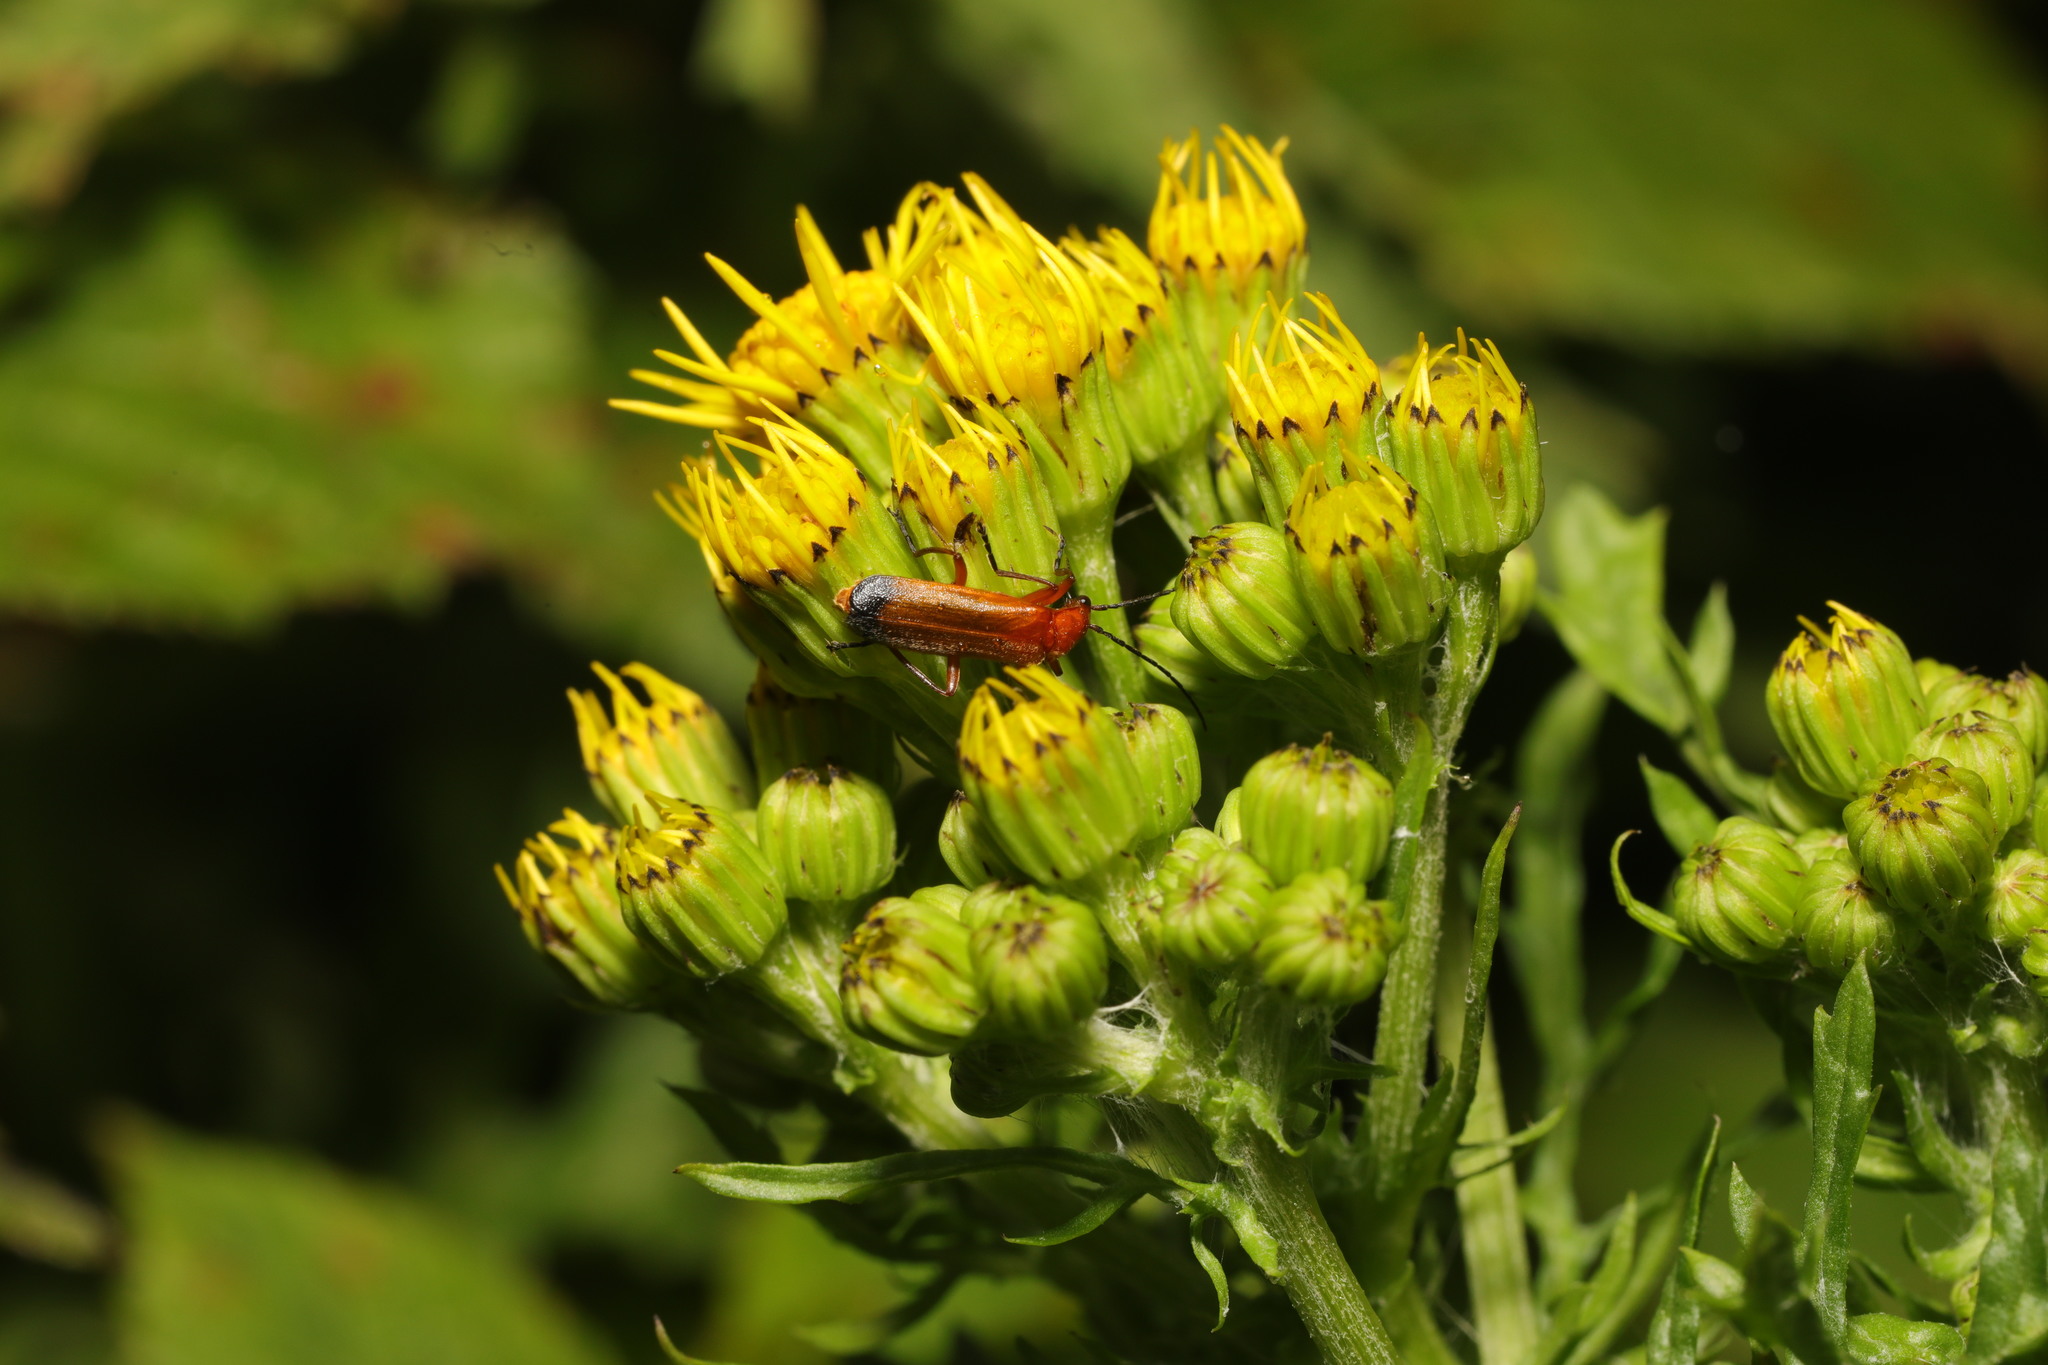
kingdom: Animalia
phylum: Arthropoda
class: Insecta
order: Coleoptera
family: Cantharidae
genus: Rhagonycha
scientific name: Rhagonycha fulva
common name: Common red soldier beetle
